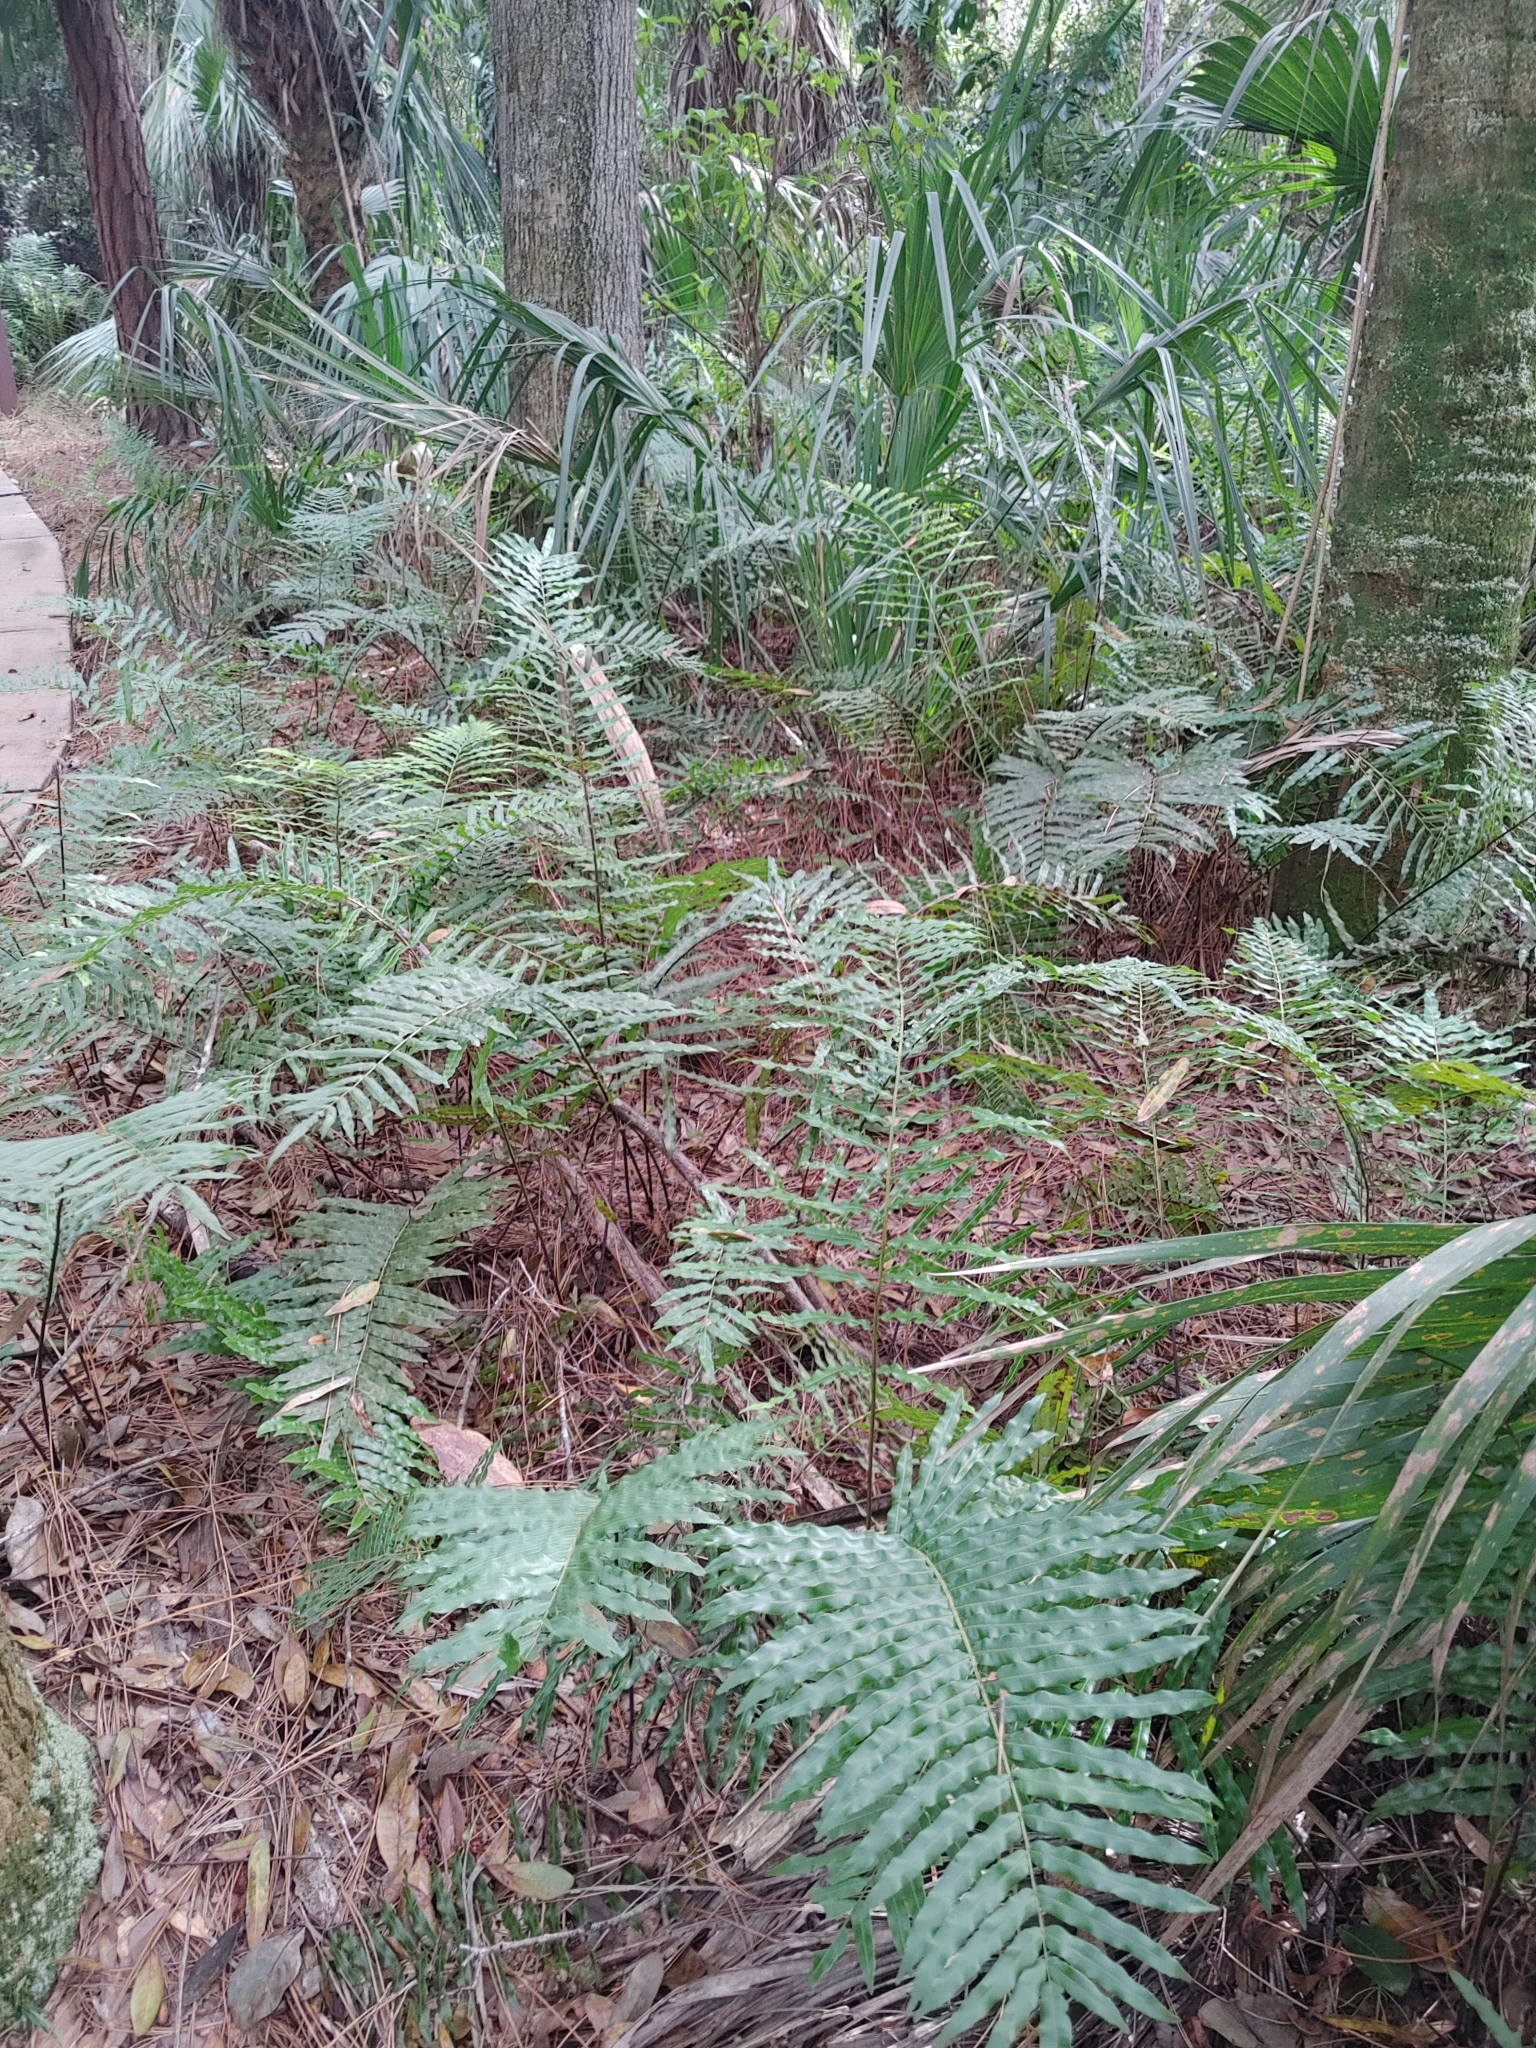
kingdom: Plantae
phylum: Tracheophyta
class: Polypodiopsida
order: Polypodiales
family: Blechnaceae
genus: Telmatoblechnum
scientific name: Telmatoblechnum serrulatum
